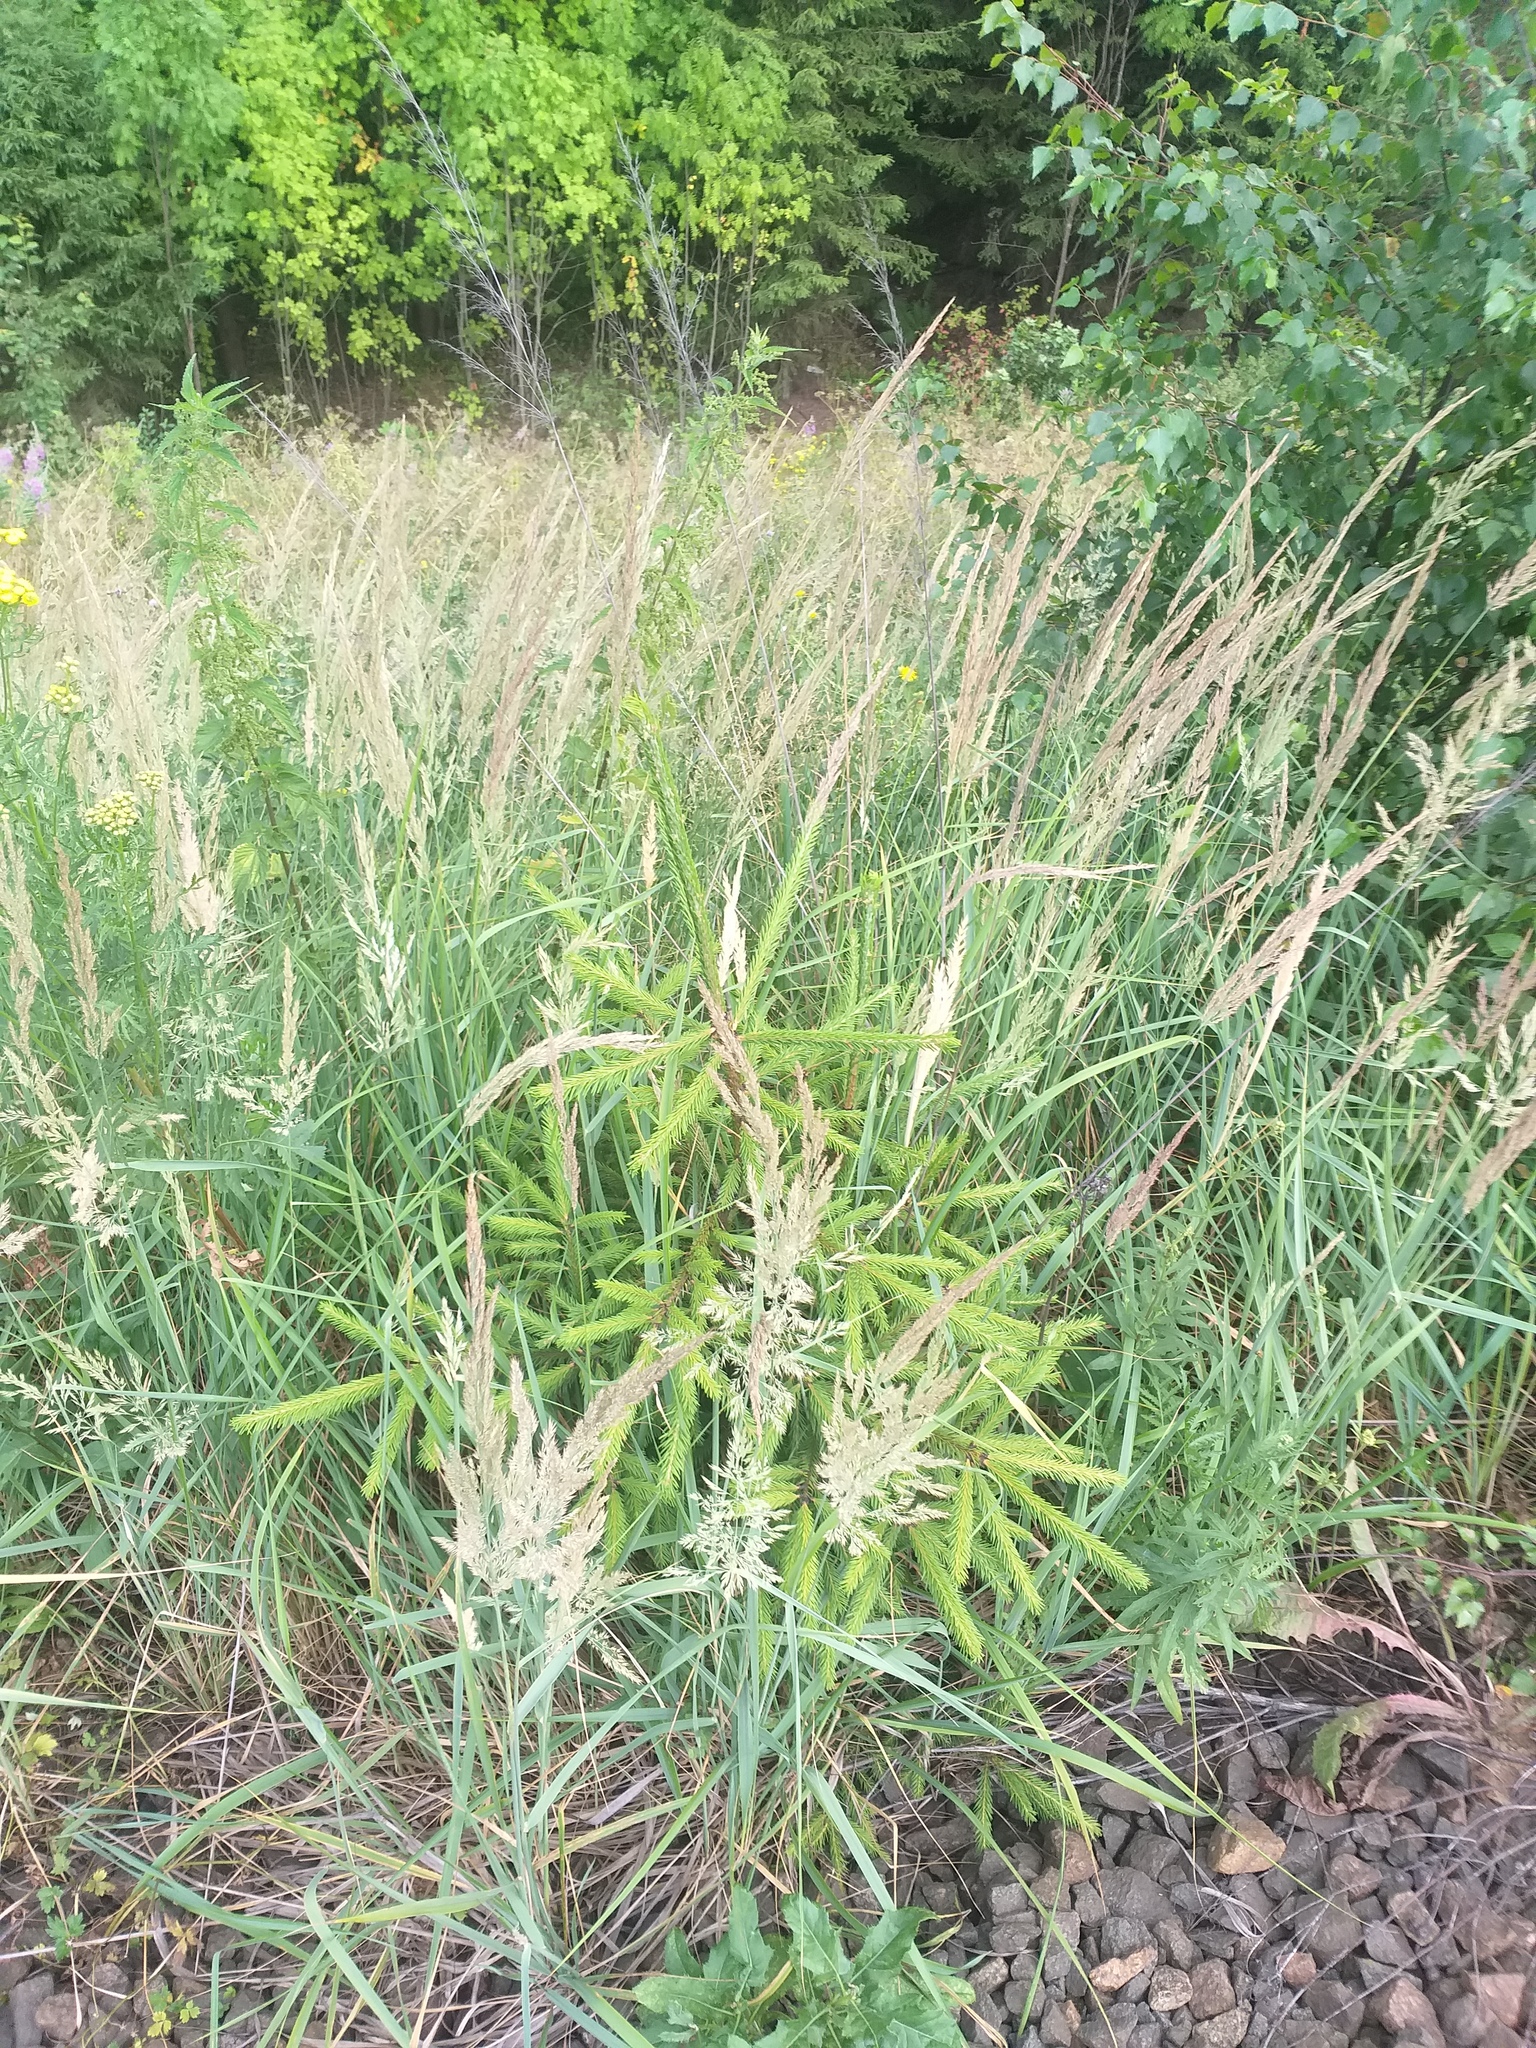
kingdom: Plantae
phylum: Tracheophyta
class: Pinopsida
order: Pinales
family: Pinaceae
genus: Picea
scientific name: Picea abies
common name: Norway spruce
